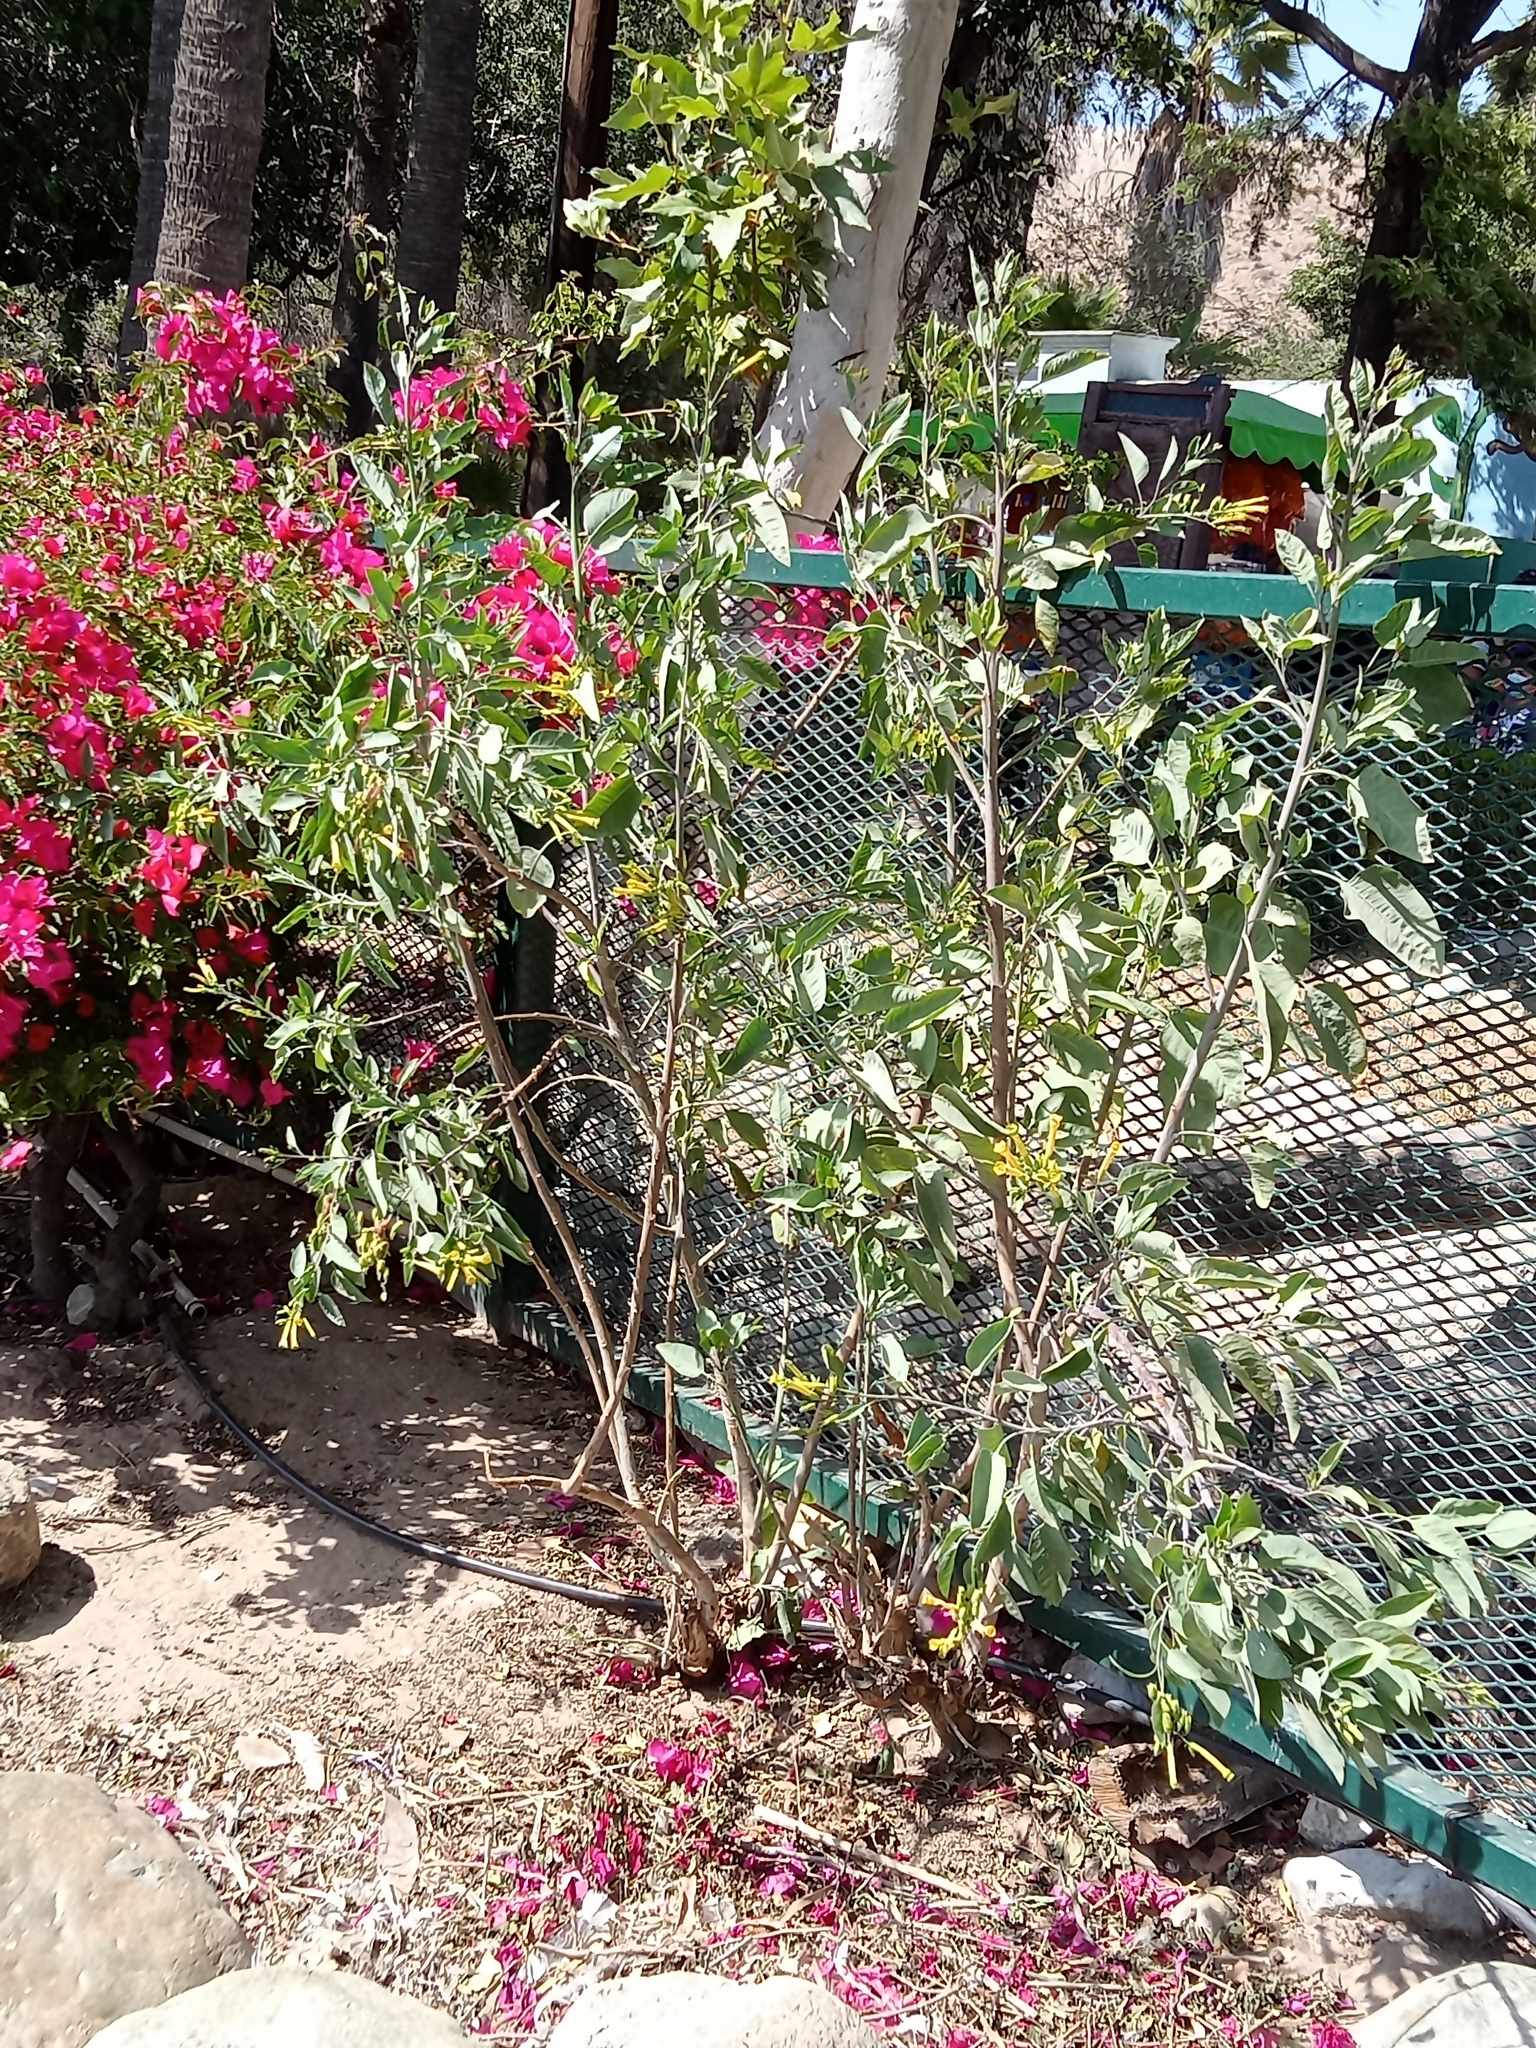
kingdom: Plantae
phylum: Tracheophyta
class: Magnoliopsida
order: Solanales
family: Solanaceae
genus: Nicotiana
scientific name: Nicotiana glauca
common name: Tree tobacco
